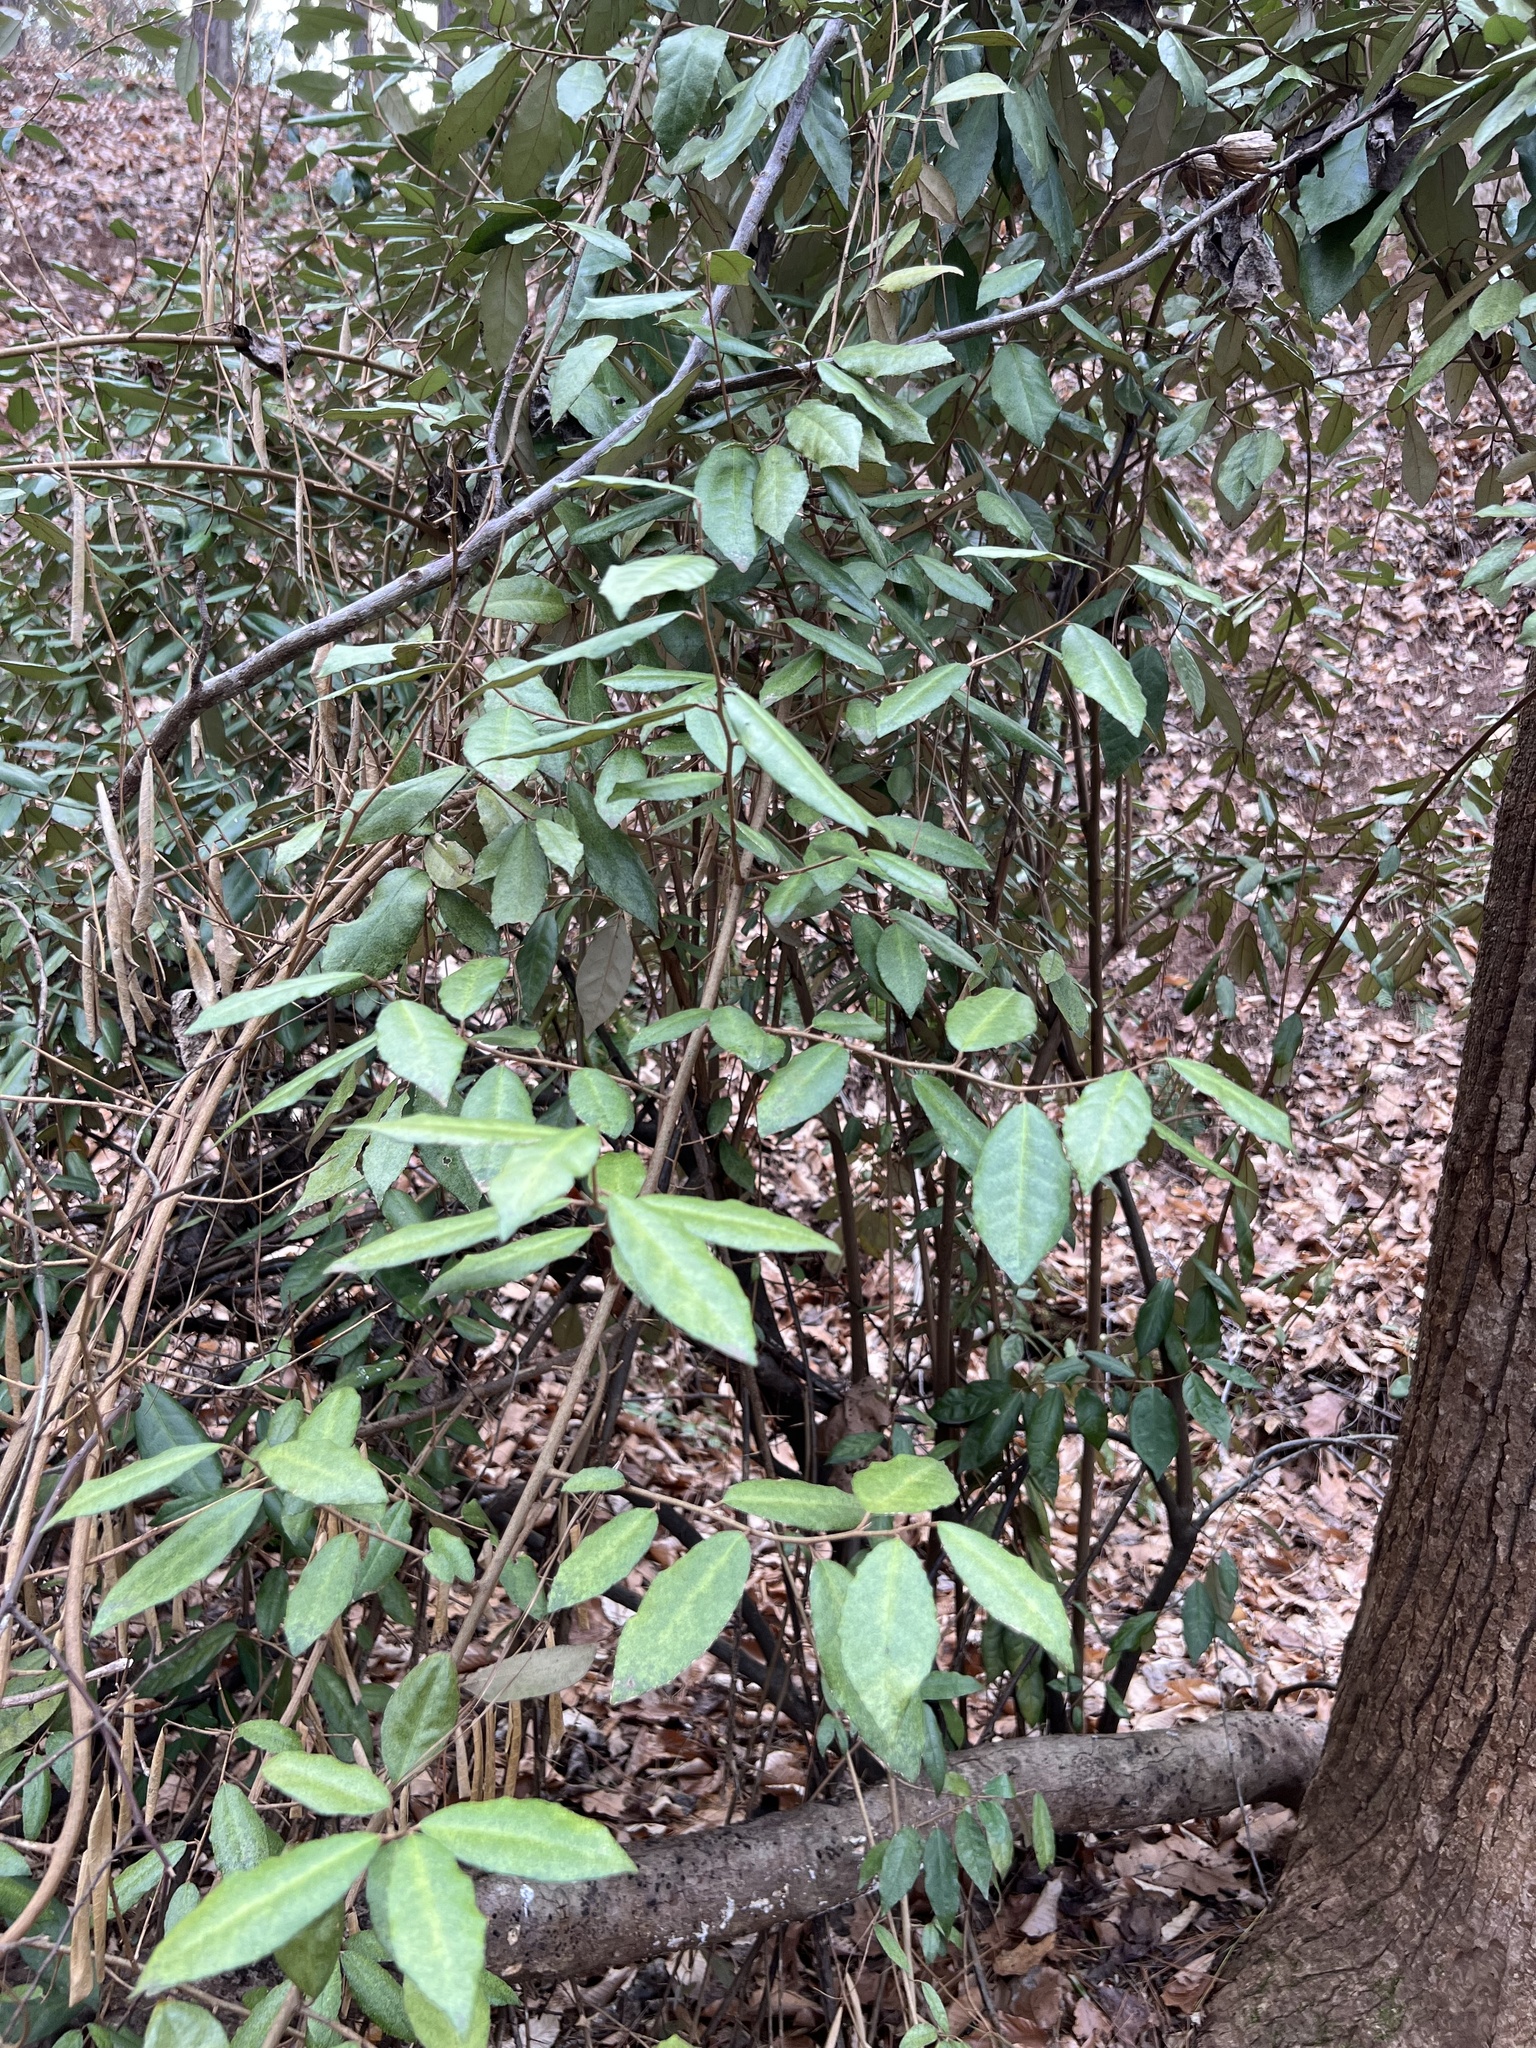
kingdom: Plantae
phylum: Tracheophyta
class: Magnoliopsida
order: Rosales
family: Elaeagnaceae
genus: Elaeagnus
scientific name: Elaeagnus pungens
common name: Spiny oleaster
